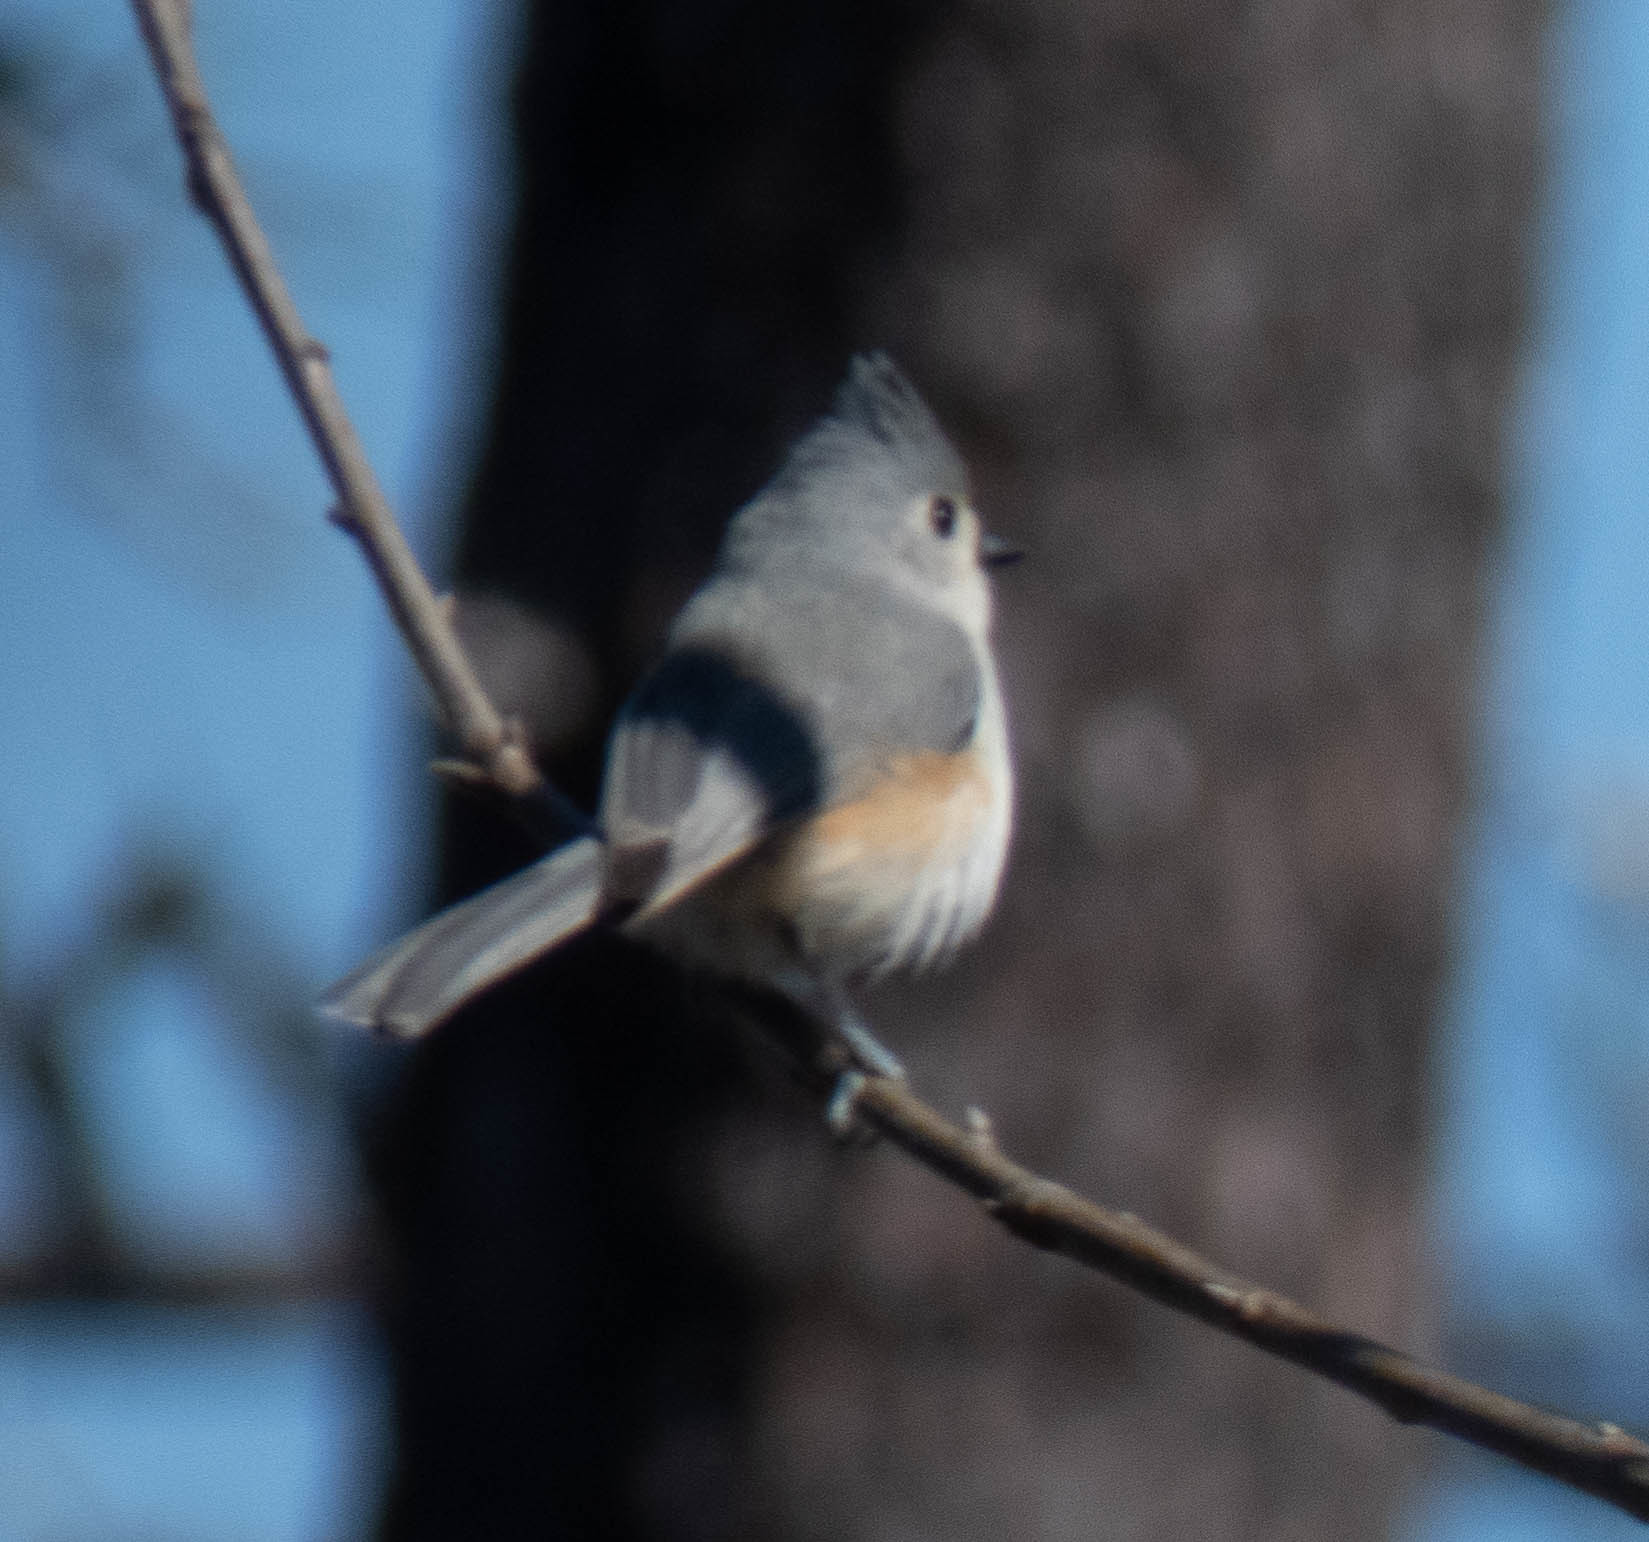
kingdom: Animalia
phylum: Chordata
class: Aves
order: Passeriformes
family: Paridae
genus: Baeolophus
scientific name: Baeolophus bicolor
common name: Tufted titmouse
